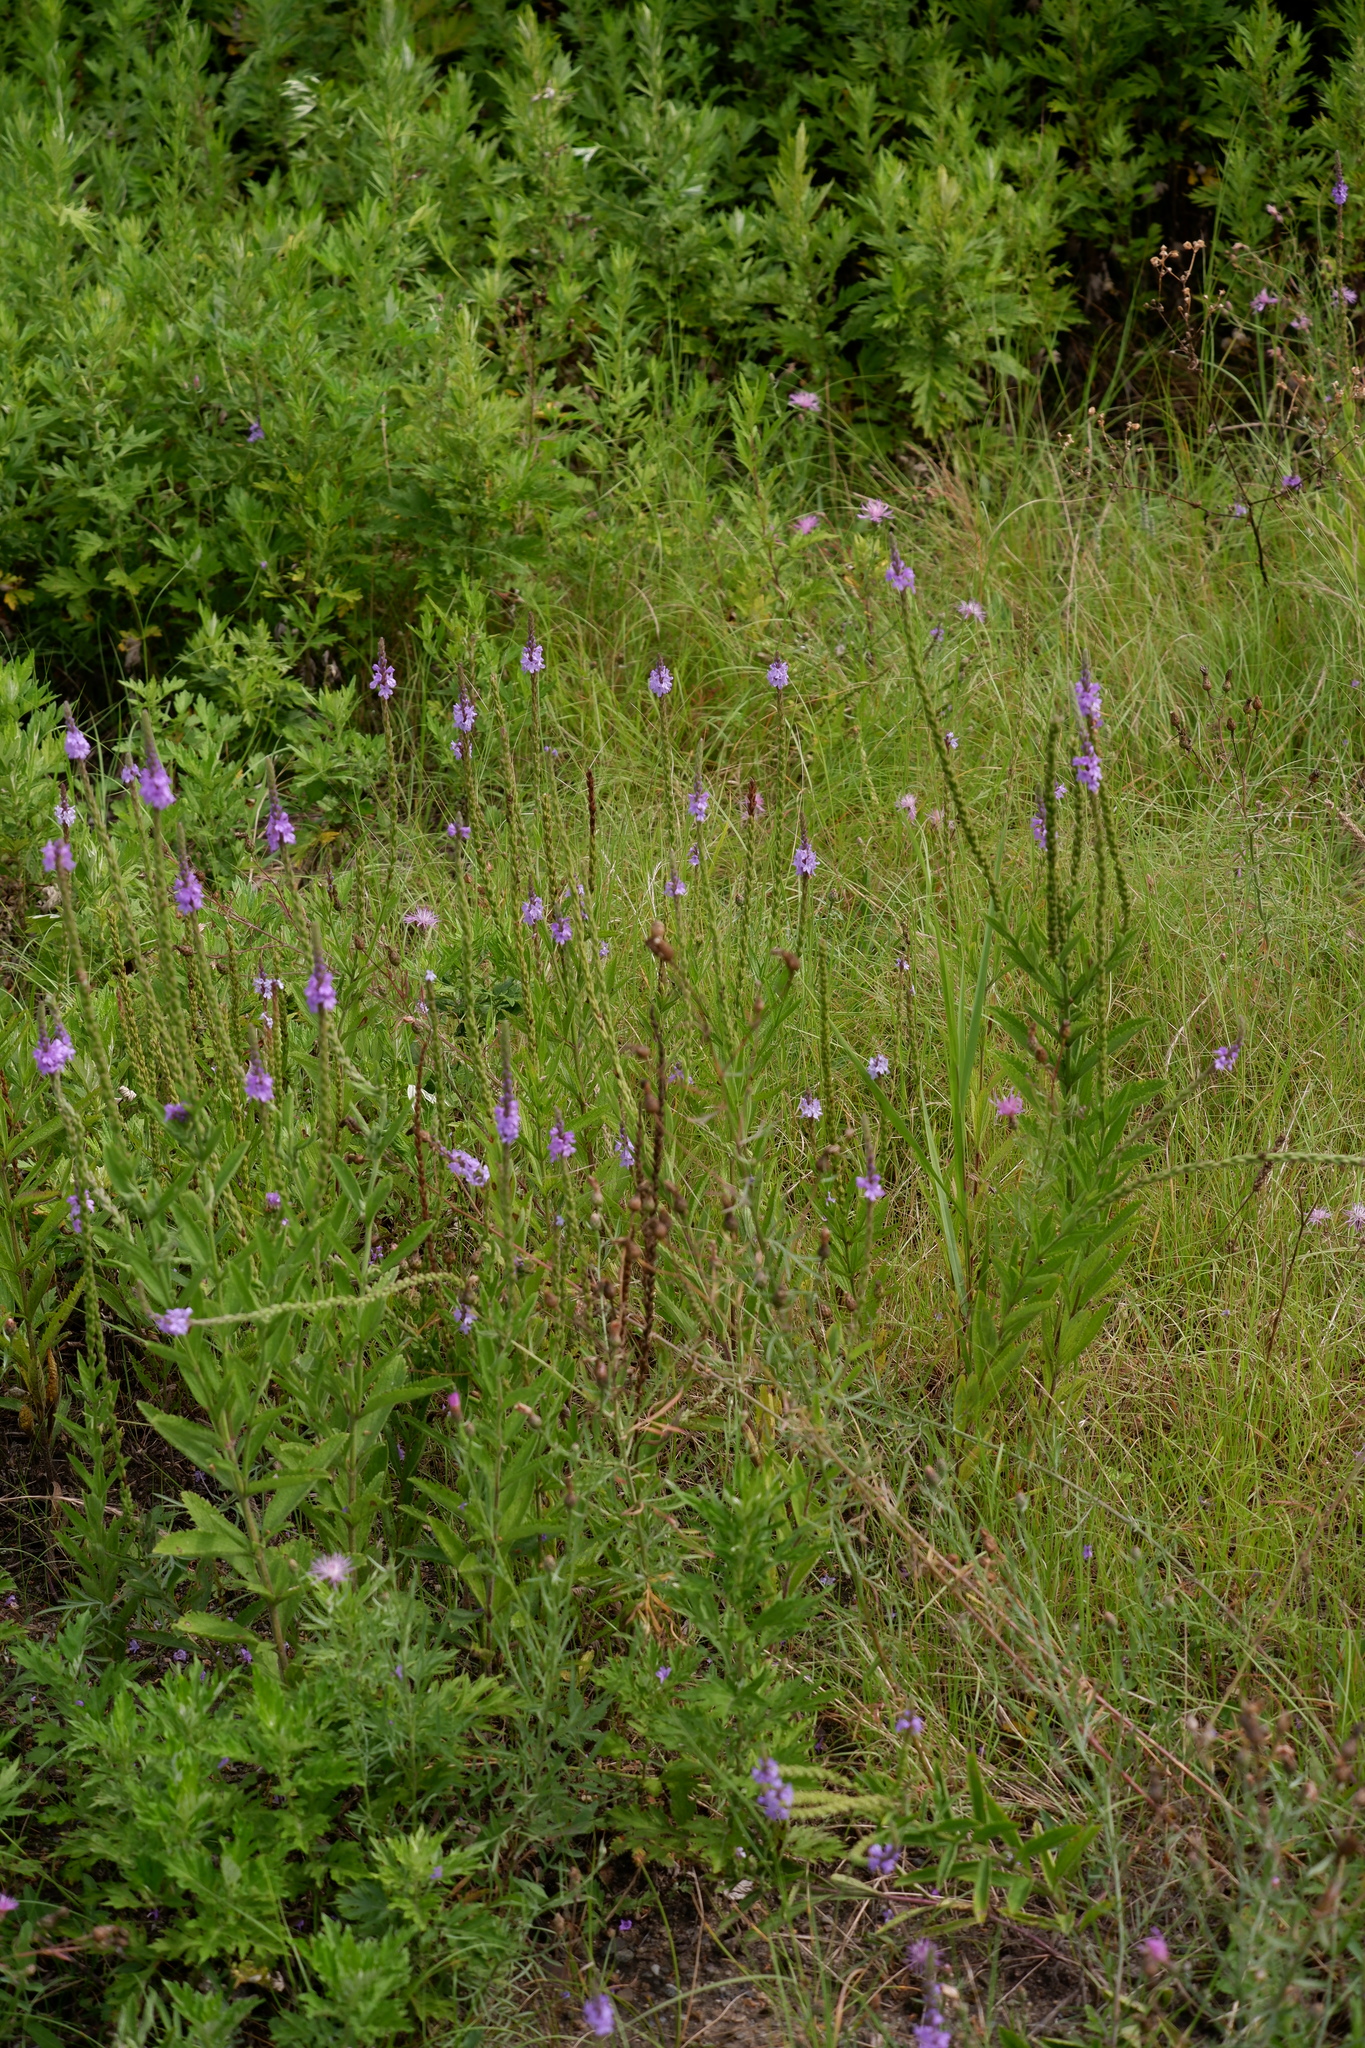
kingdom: Plantae
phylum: Tracheophyta
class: Magnoliopsida
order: Lamiales
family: Verbenaceae
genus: Verbena
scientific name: Verbena stricta
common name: Hoary vervain
